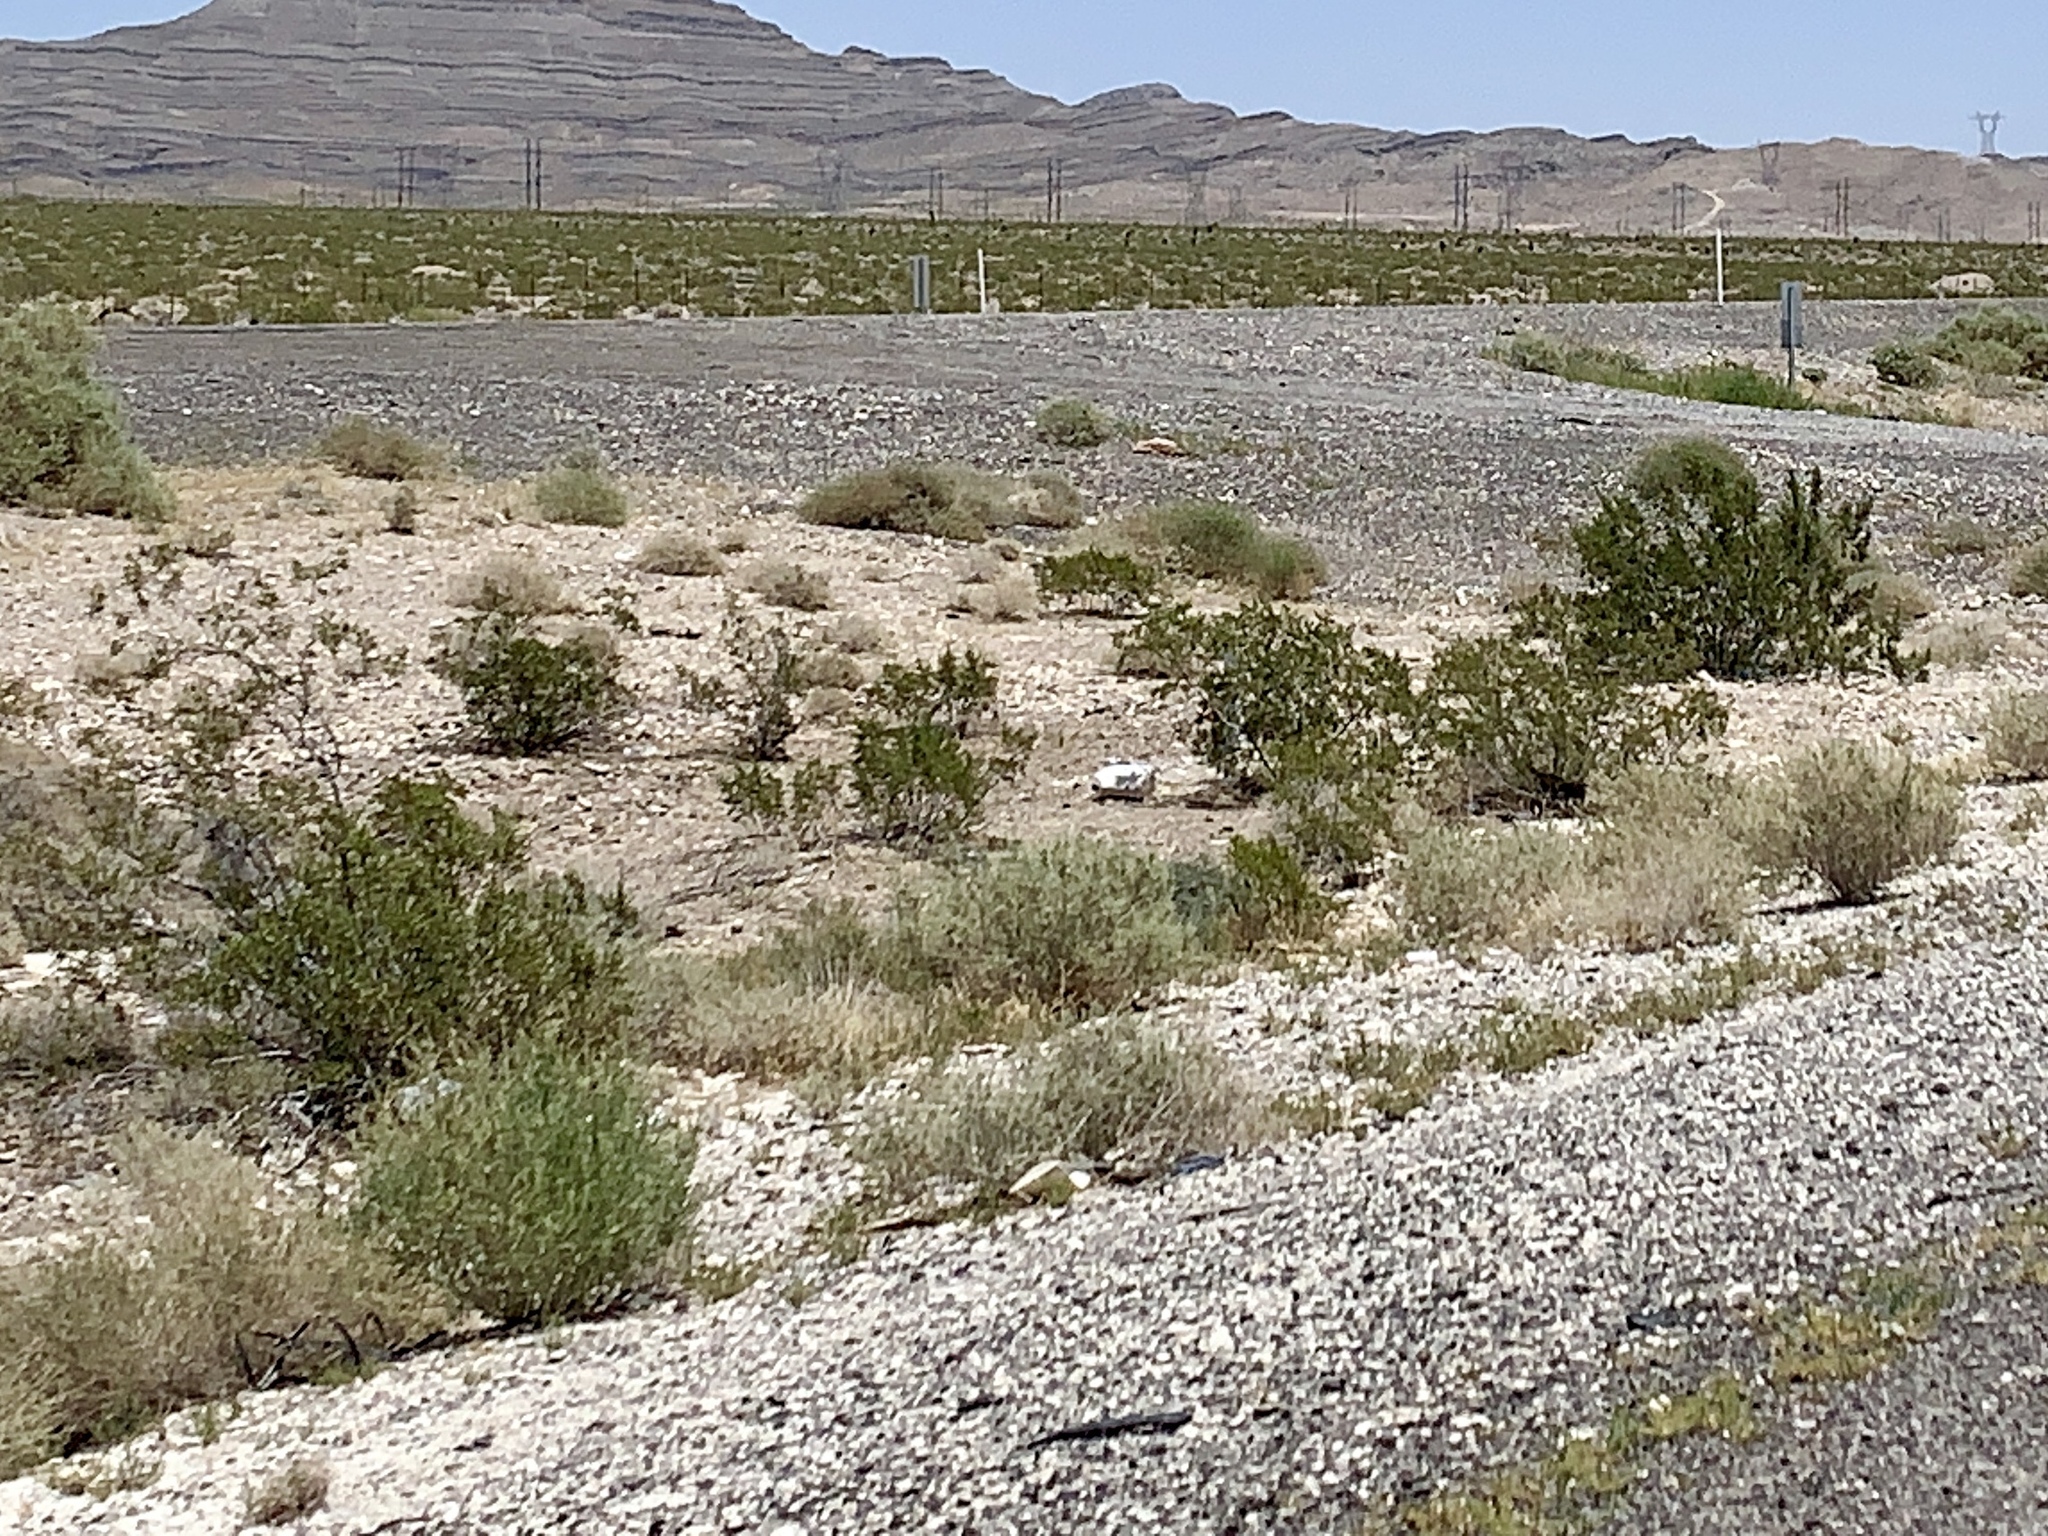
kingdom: Plantae
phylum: Tracheophyta
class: Magnoliopsida
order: Zygophyllales
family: Zygophyllaceae
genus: Larrea
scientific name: Larrea tridentata
